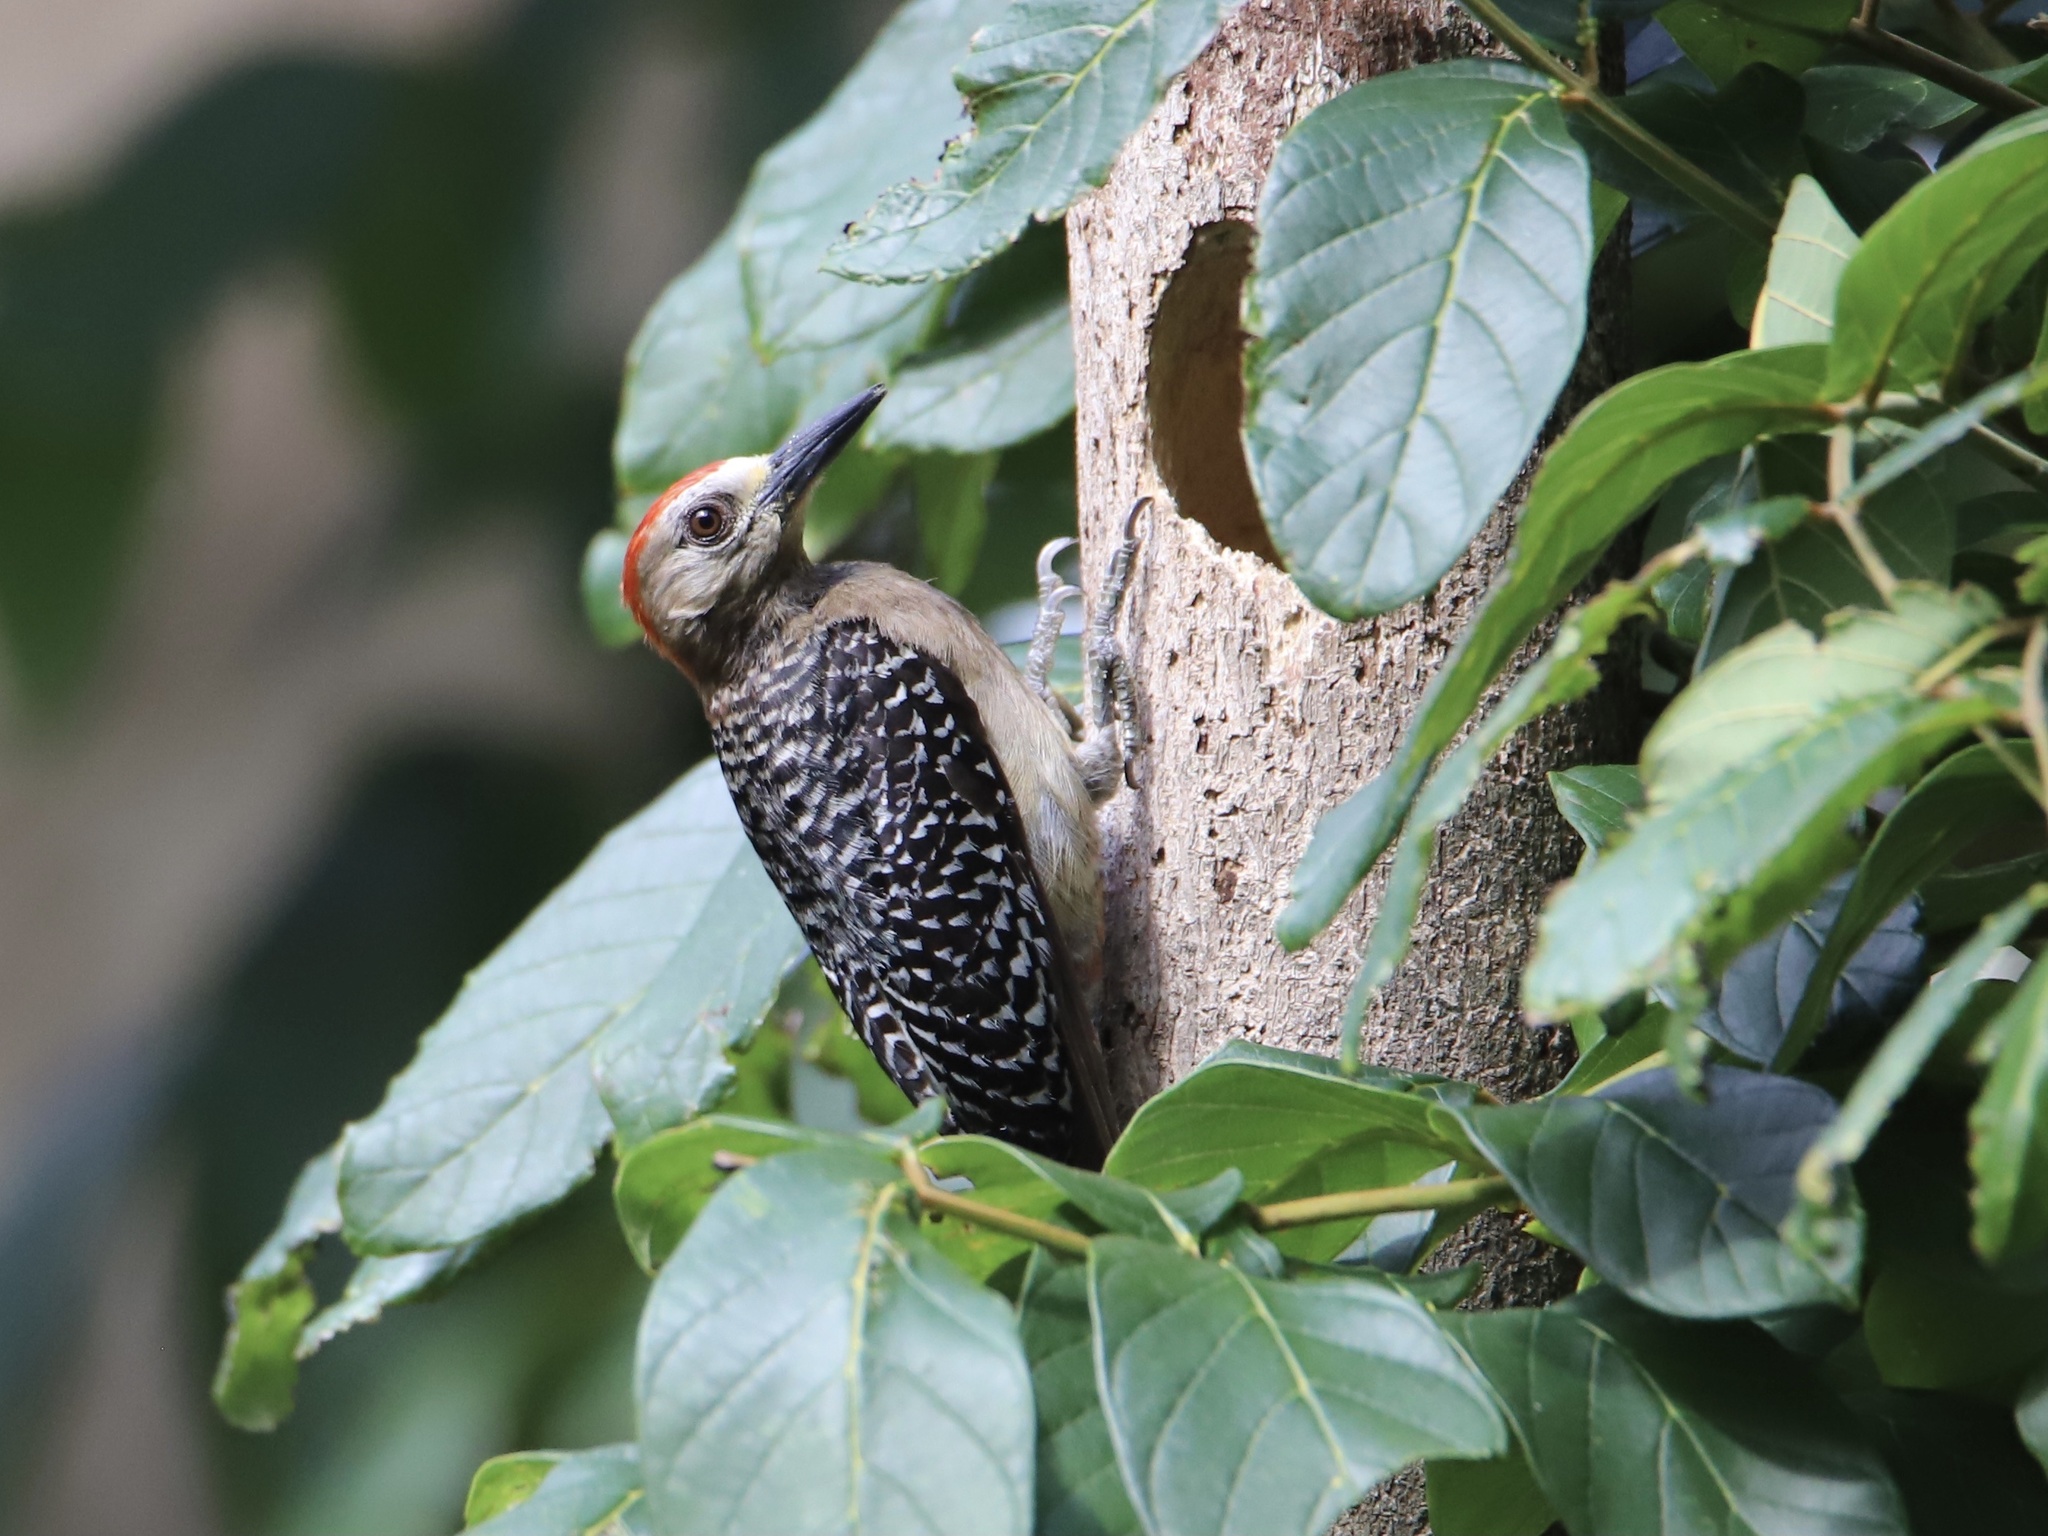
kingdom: Animalia
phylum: Chordata
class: Aves
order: Piciformes
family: Picidae
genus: Melanerpes
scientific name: Melanerpes rubricapillus
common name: Red-crowned woodpecker
